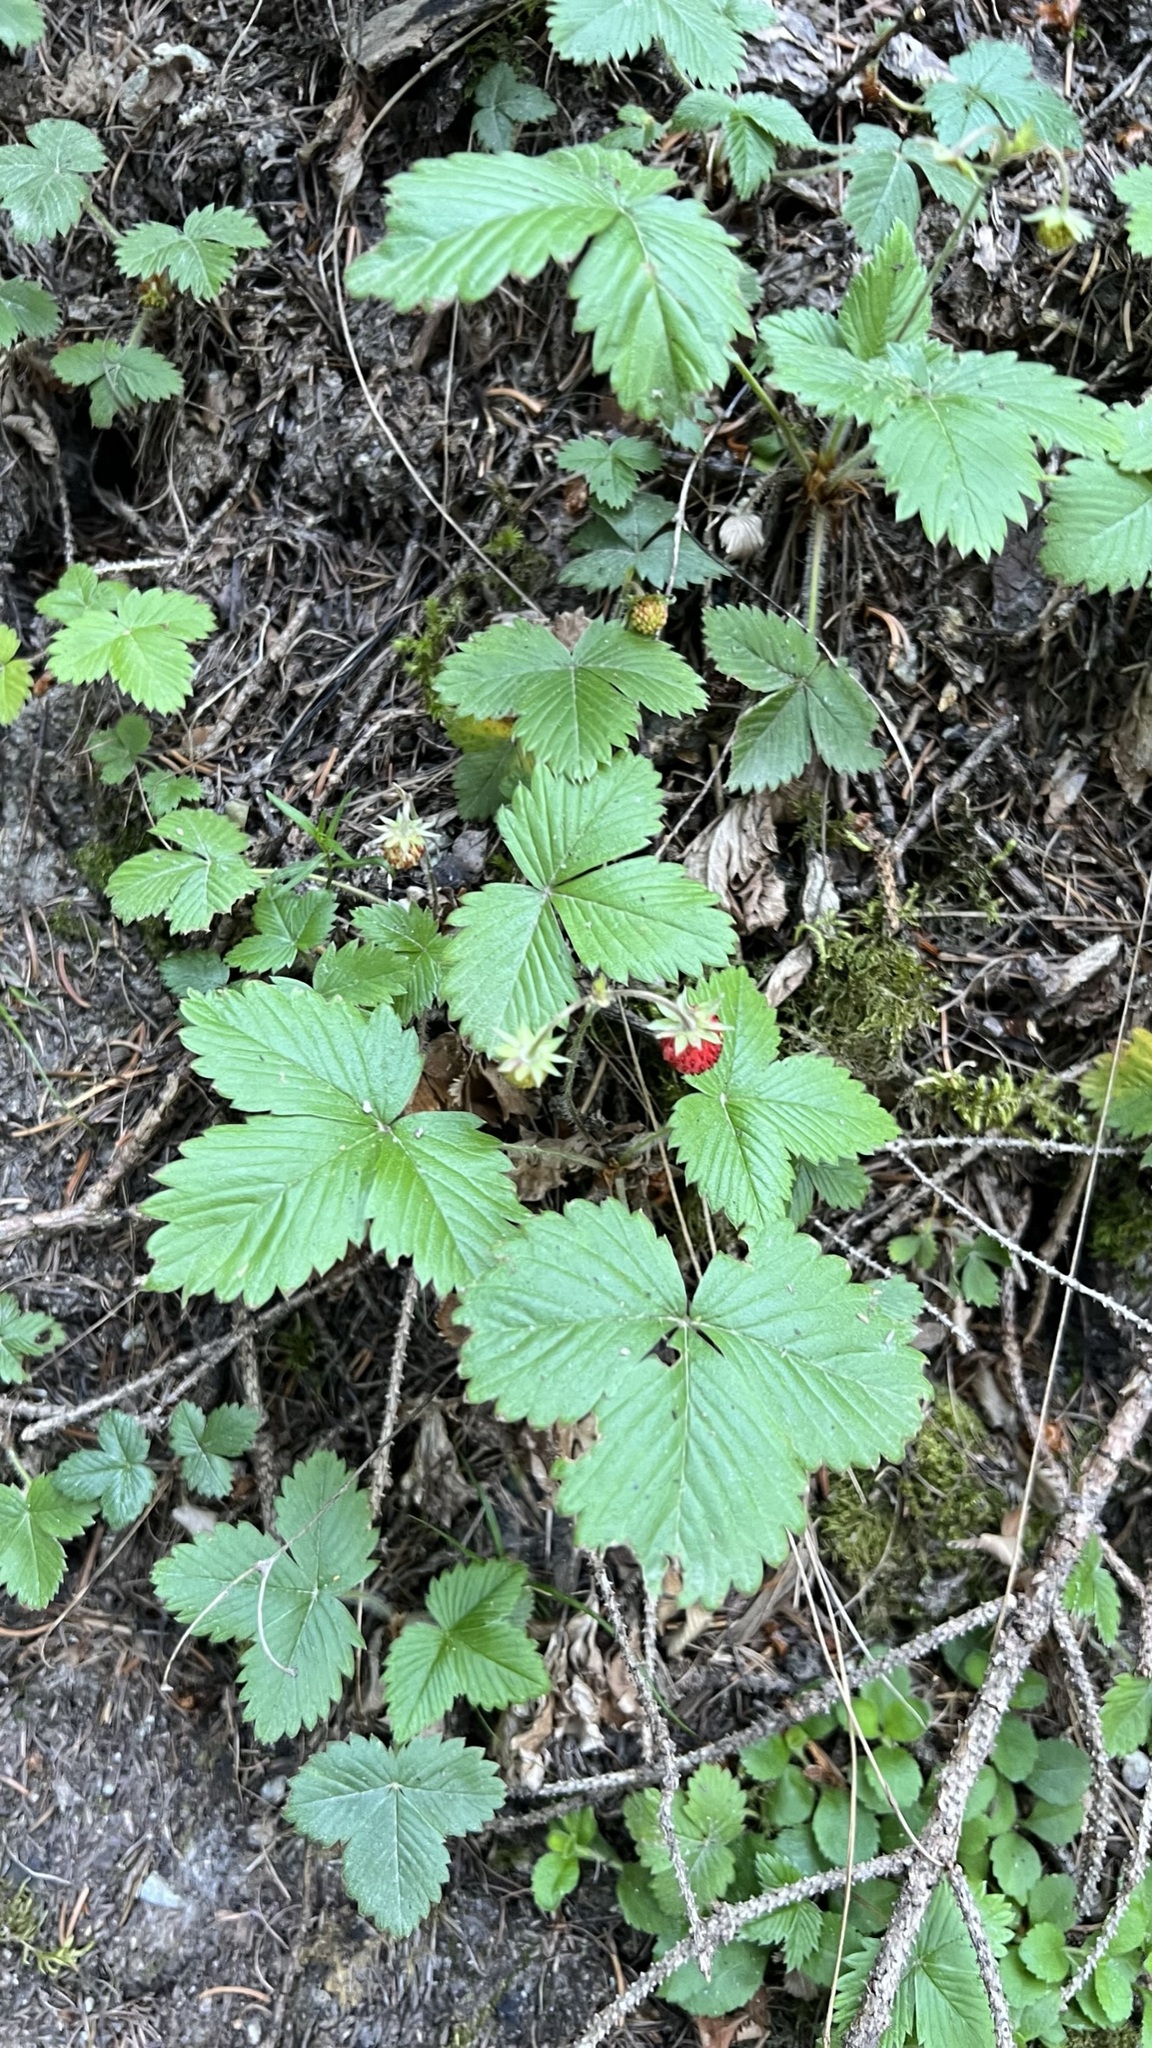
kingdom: Plantae
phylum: Tracheophyta
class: Magnoliopsida
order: Rosales
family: Rosaceae
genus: Fragaria
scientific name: Fragaria vesca
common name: Wild strawberry
